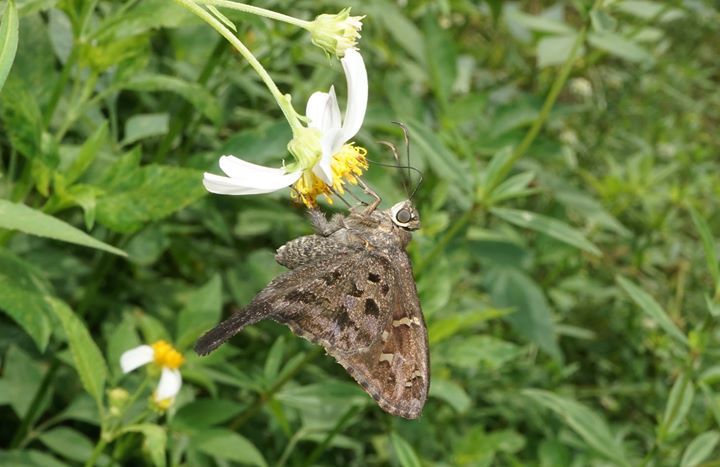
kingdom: Animalia
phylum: Arthropoda
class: Insecta
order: Lepidoptera
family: Hesperiidae
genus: Thorybes
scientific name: Thorybes
